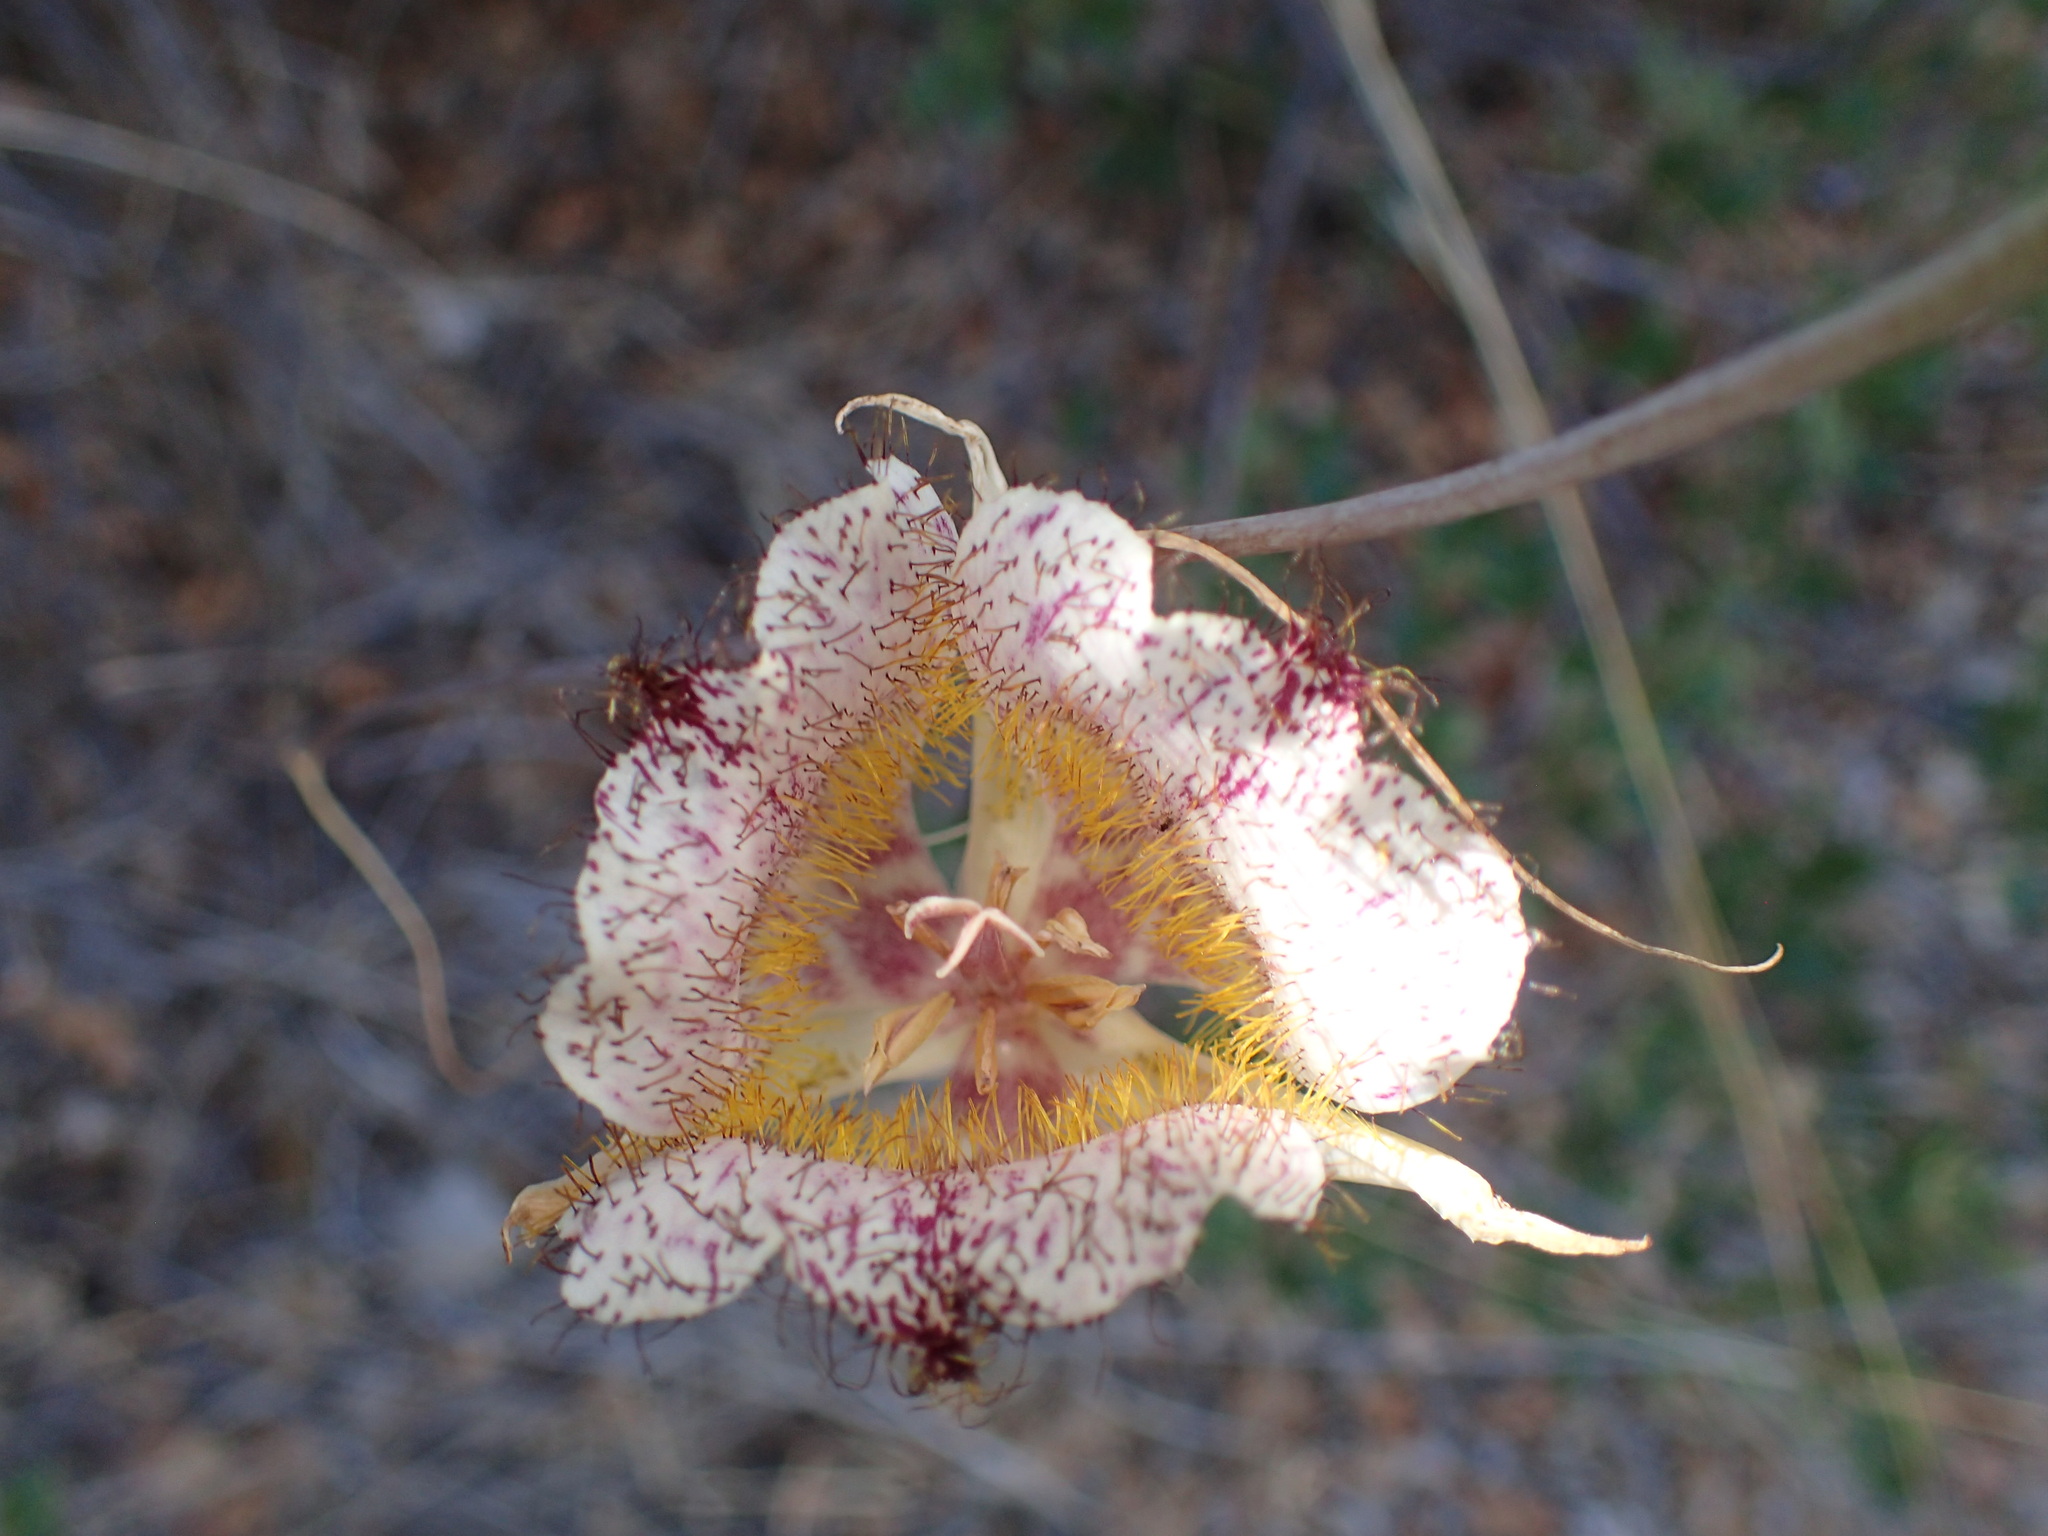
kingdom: Plantae
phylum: Tracheophyta
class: Liliopsida
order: Liliales
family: Liliaceae
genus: Calochortus
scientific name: Calochortus fimbriatus
